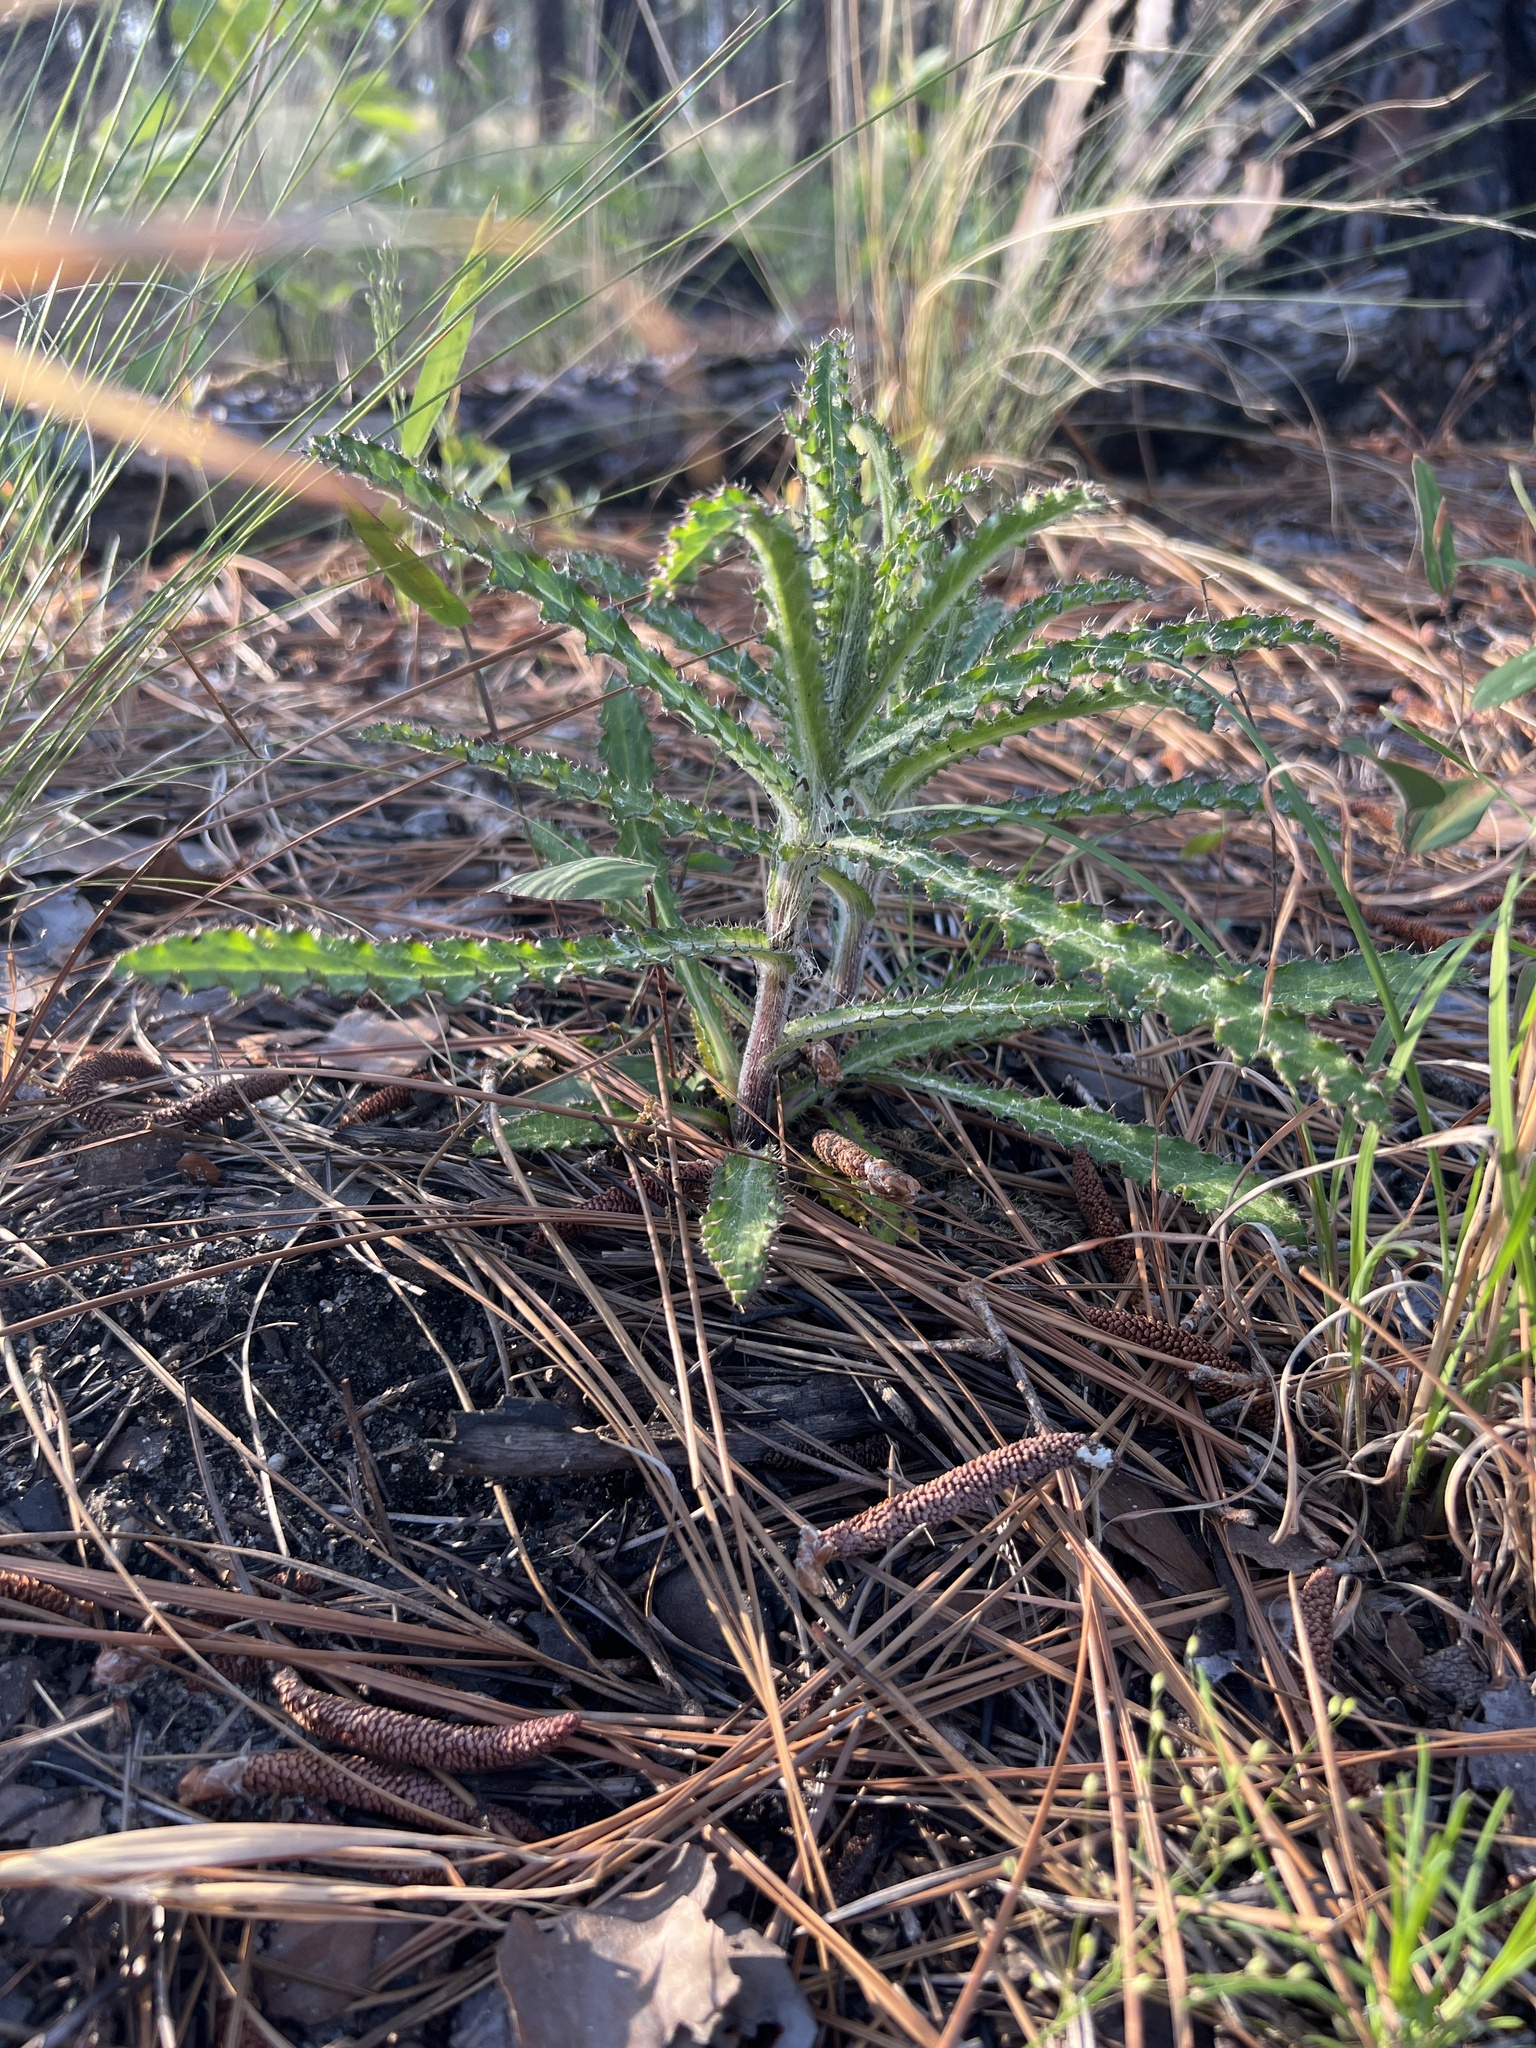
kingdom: Plantae
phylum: Tracheophyta
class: Magnoliopsida
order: Asterales
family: Asteraceae
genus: Cirsium
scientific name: Cirsium repandum
